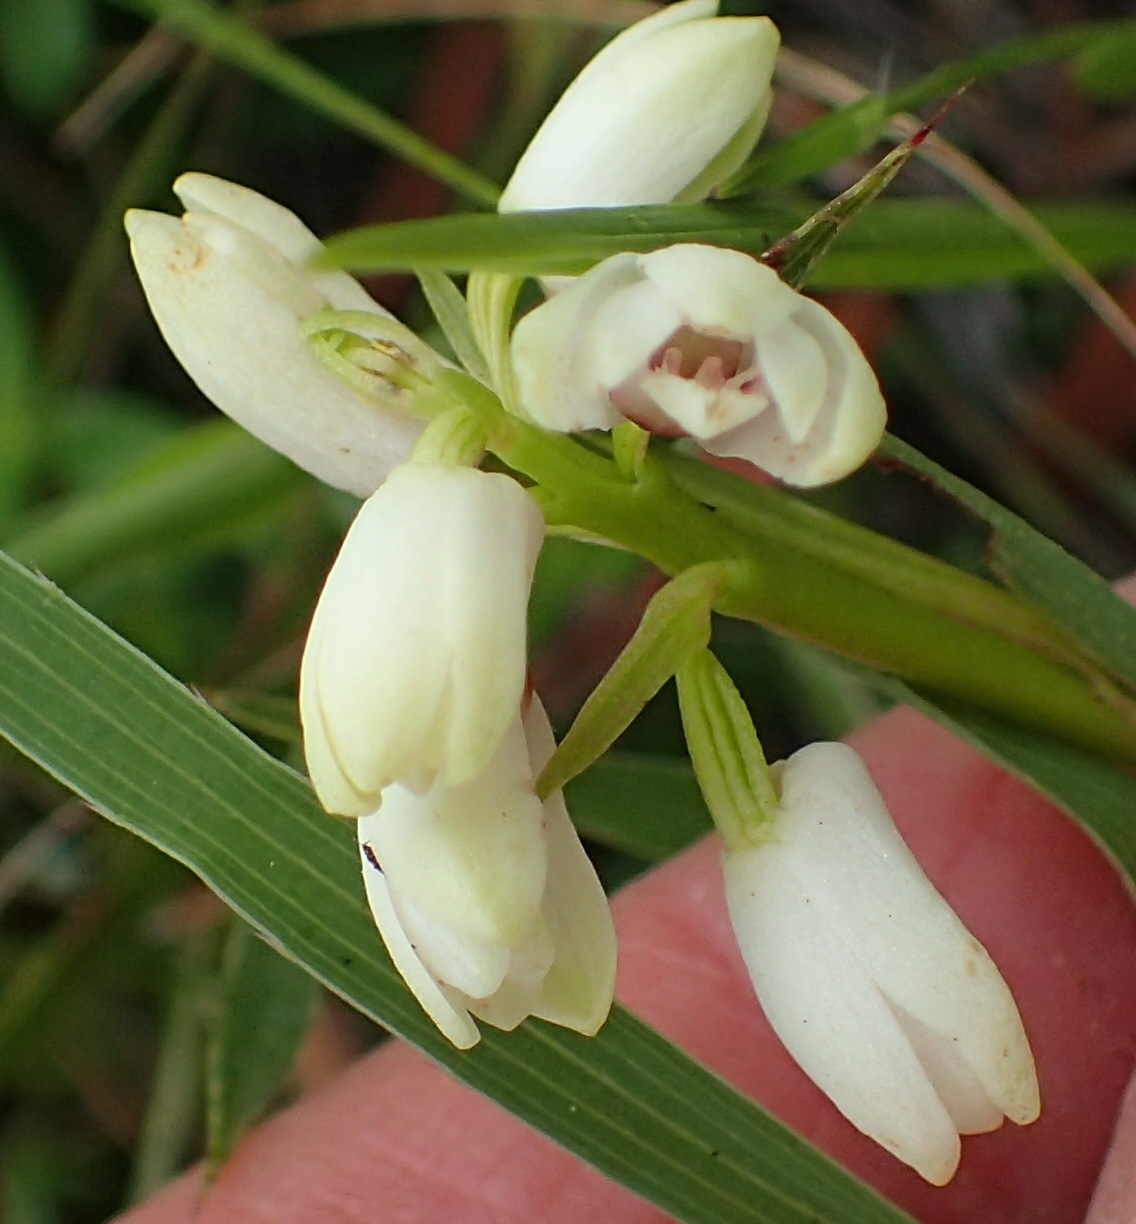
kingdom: Plantae
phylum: Tracheophyta
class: Liliopsida
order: Asparagales
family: Orchidaceae
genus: Eulophia
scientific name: Eulophia aculeata
